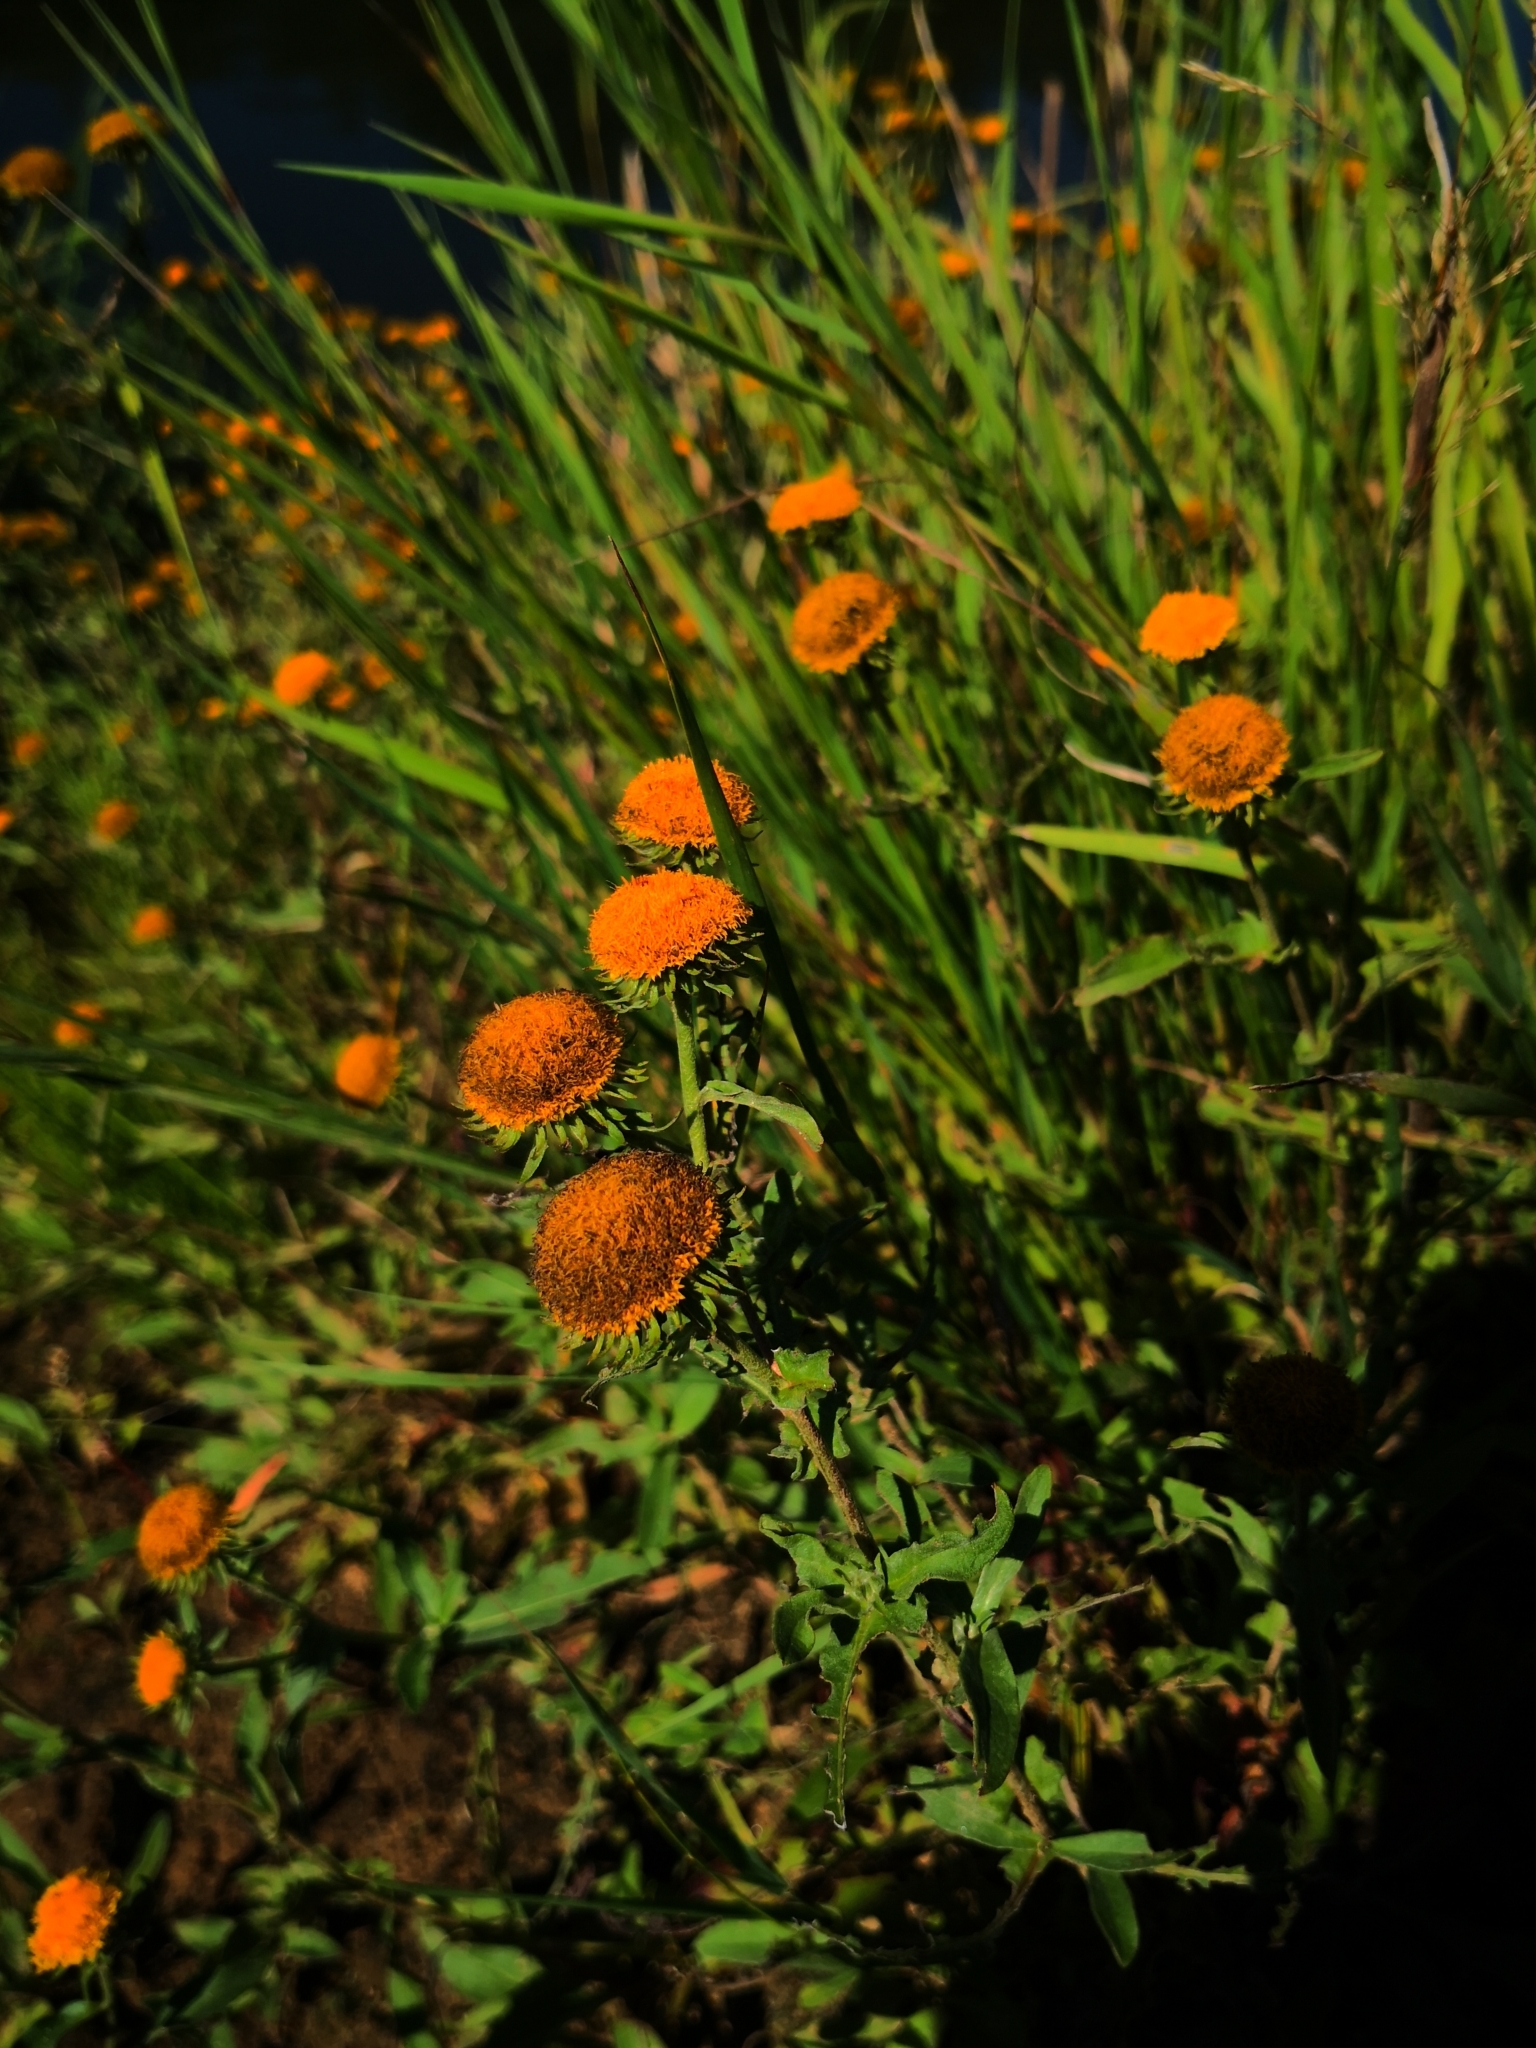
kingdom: Plantae
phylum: Tracheophyta
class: Magnoliopsida
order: Asterales
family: Asteraceae
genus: Pentanema
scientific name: Pentanema britannicum
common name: British elecampane
